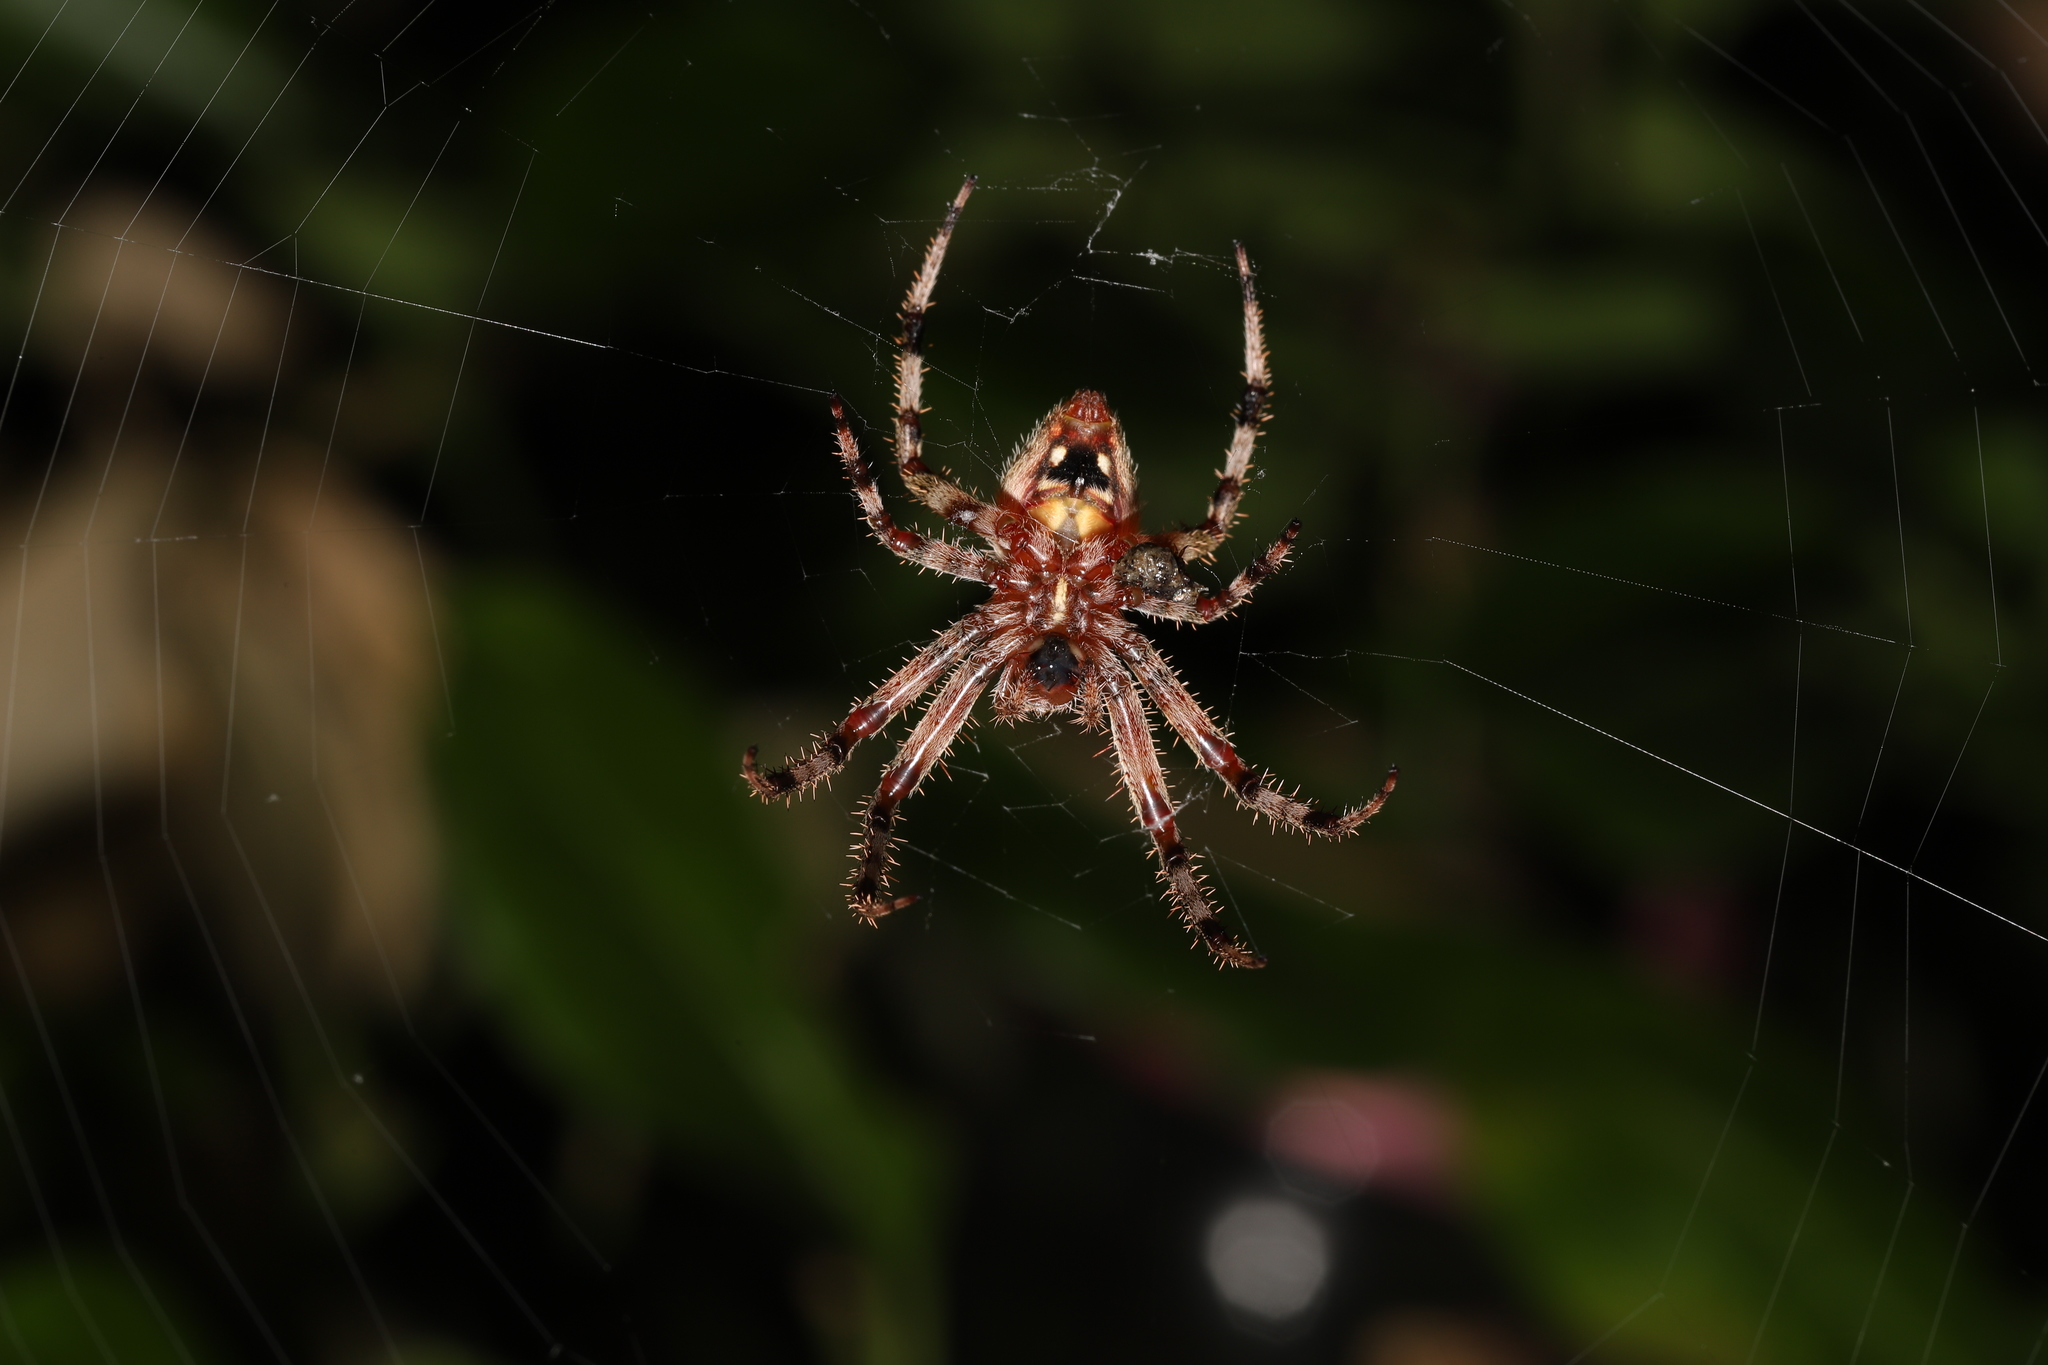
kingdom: Animalia
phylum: Arthropoda
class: Arachnida
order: Araneae
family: Araneidae
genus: Neoscona
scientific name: Neoscona crucifera
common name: Spotted orbweaver
